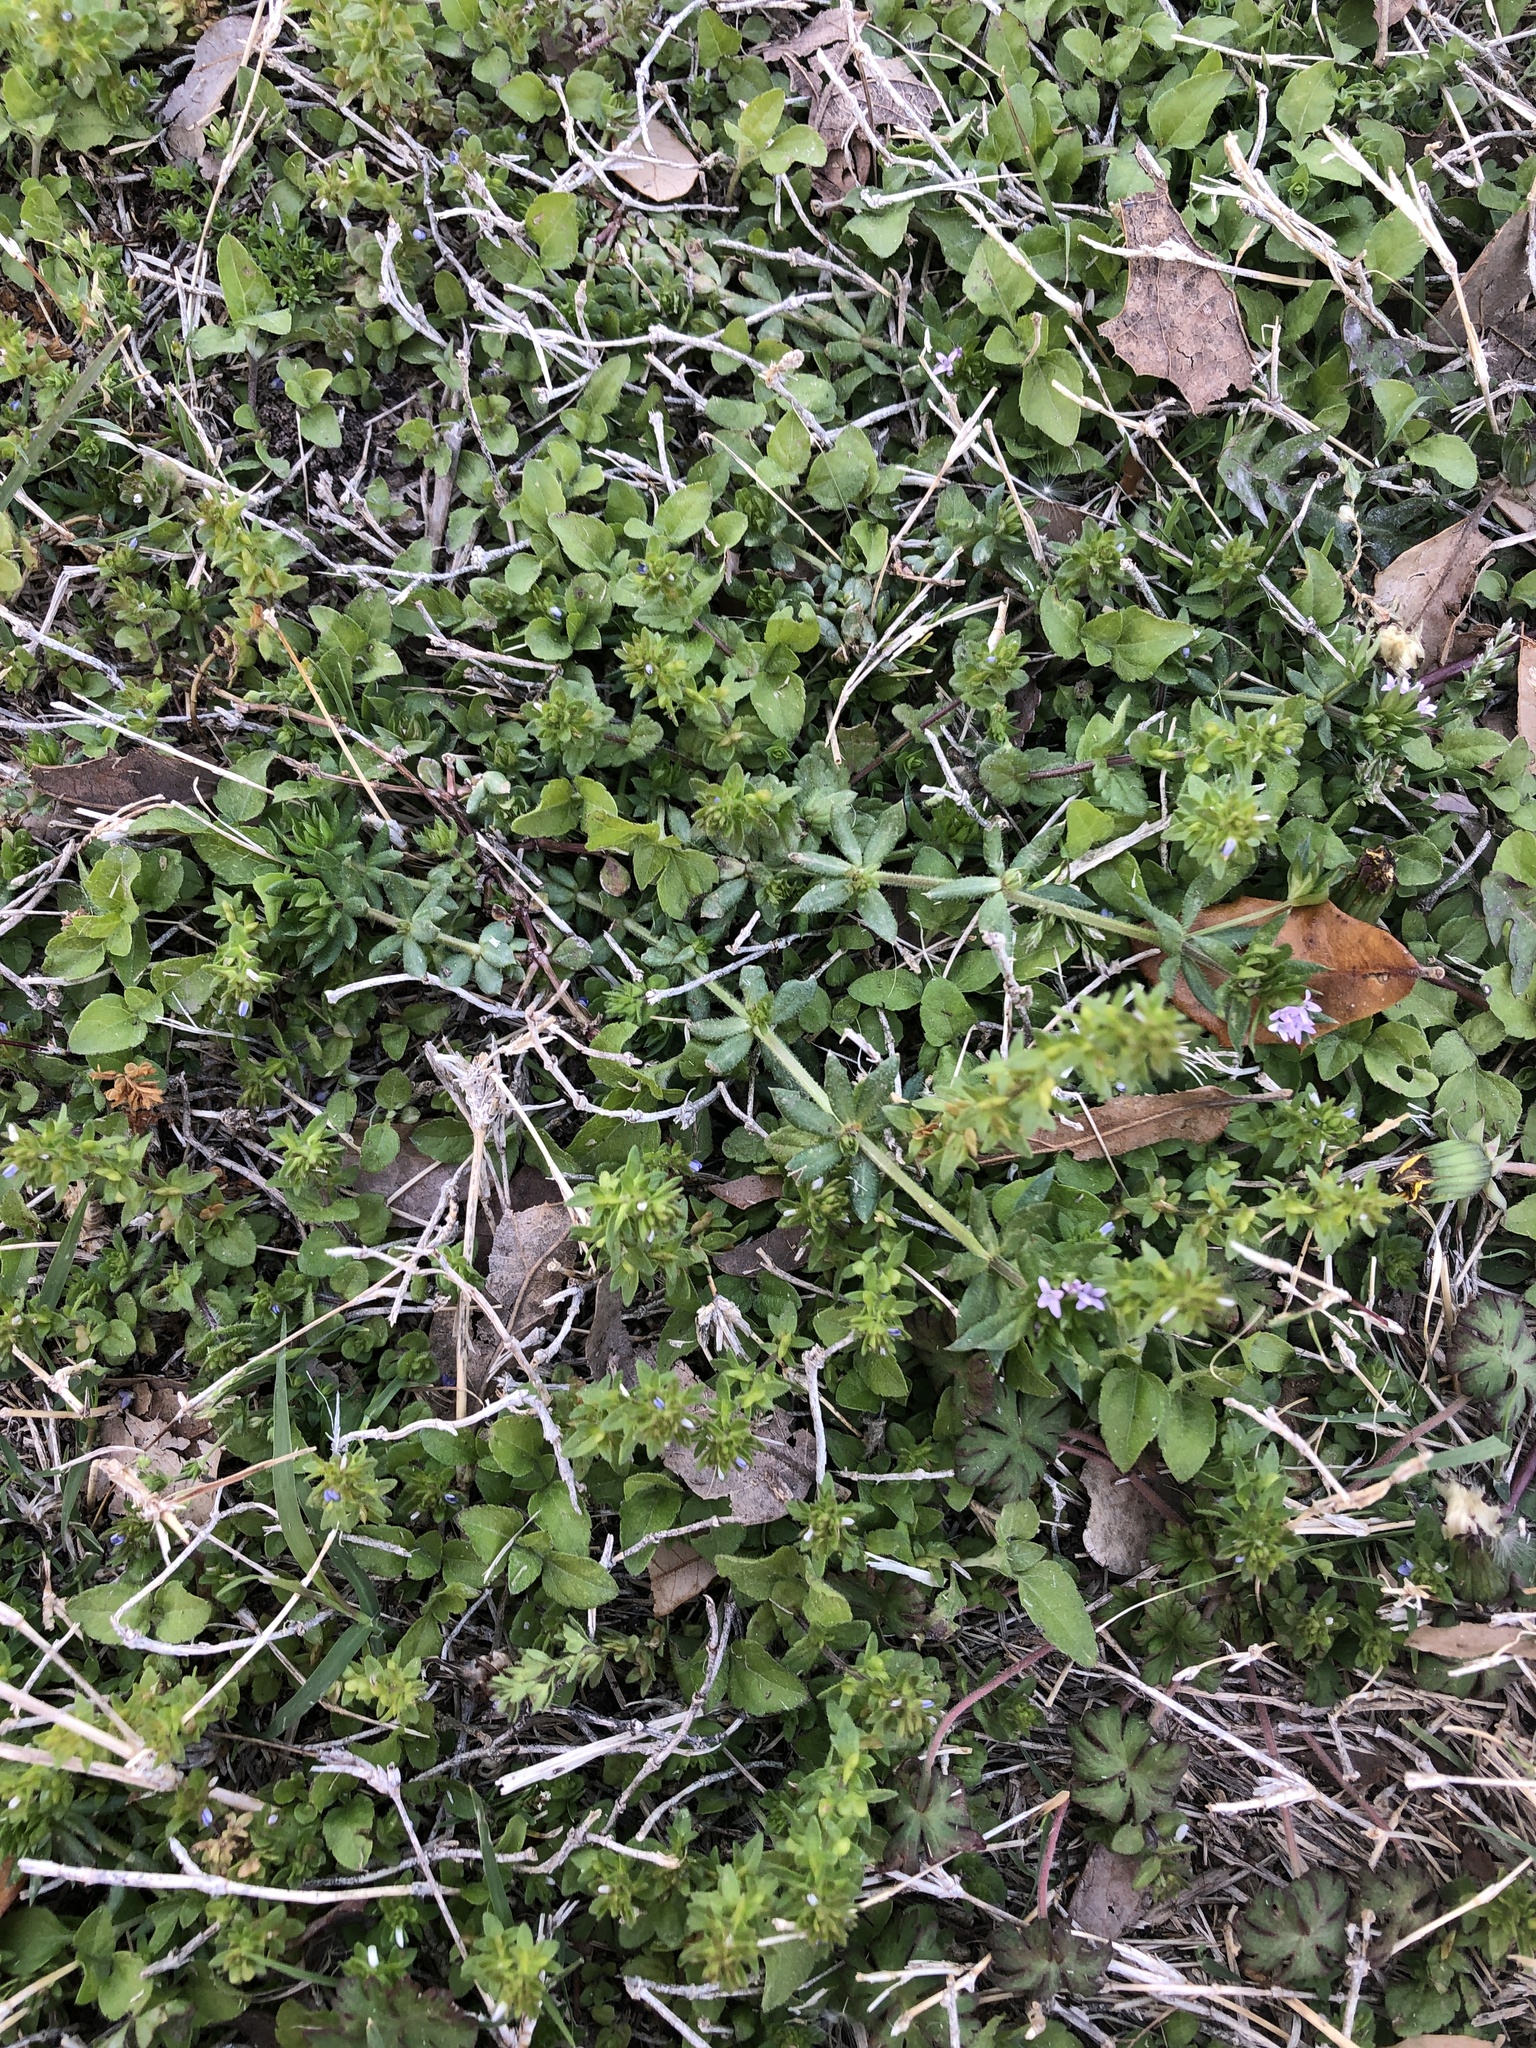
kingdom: Plantae
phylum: Tracheophyta
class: Magnoliopsida
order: Lamiales
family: Plantaginaceae
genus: Veronica
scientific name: Veronica arvensis
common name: Corn speedwell
